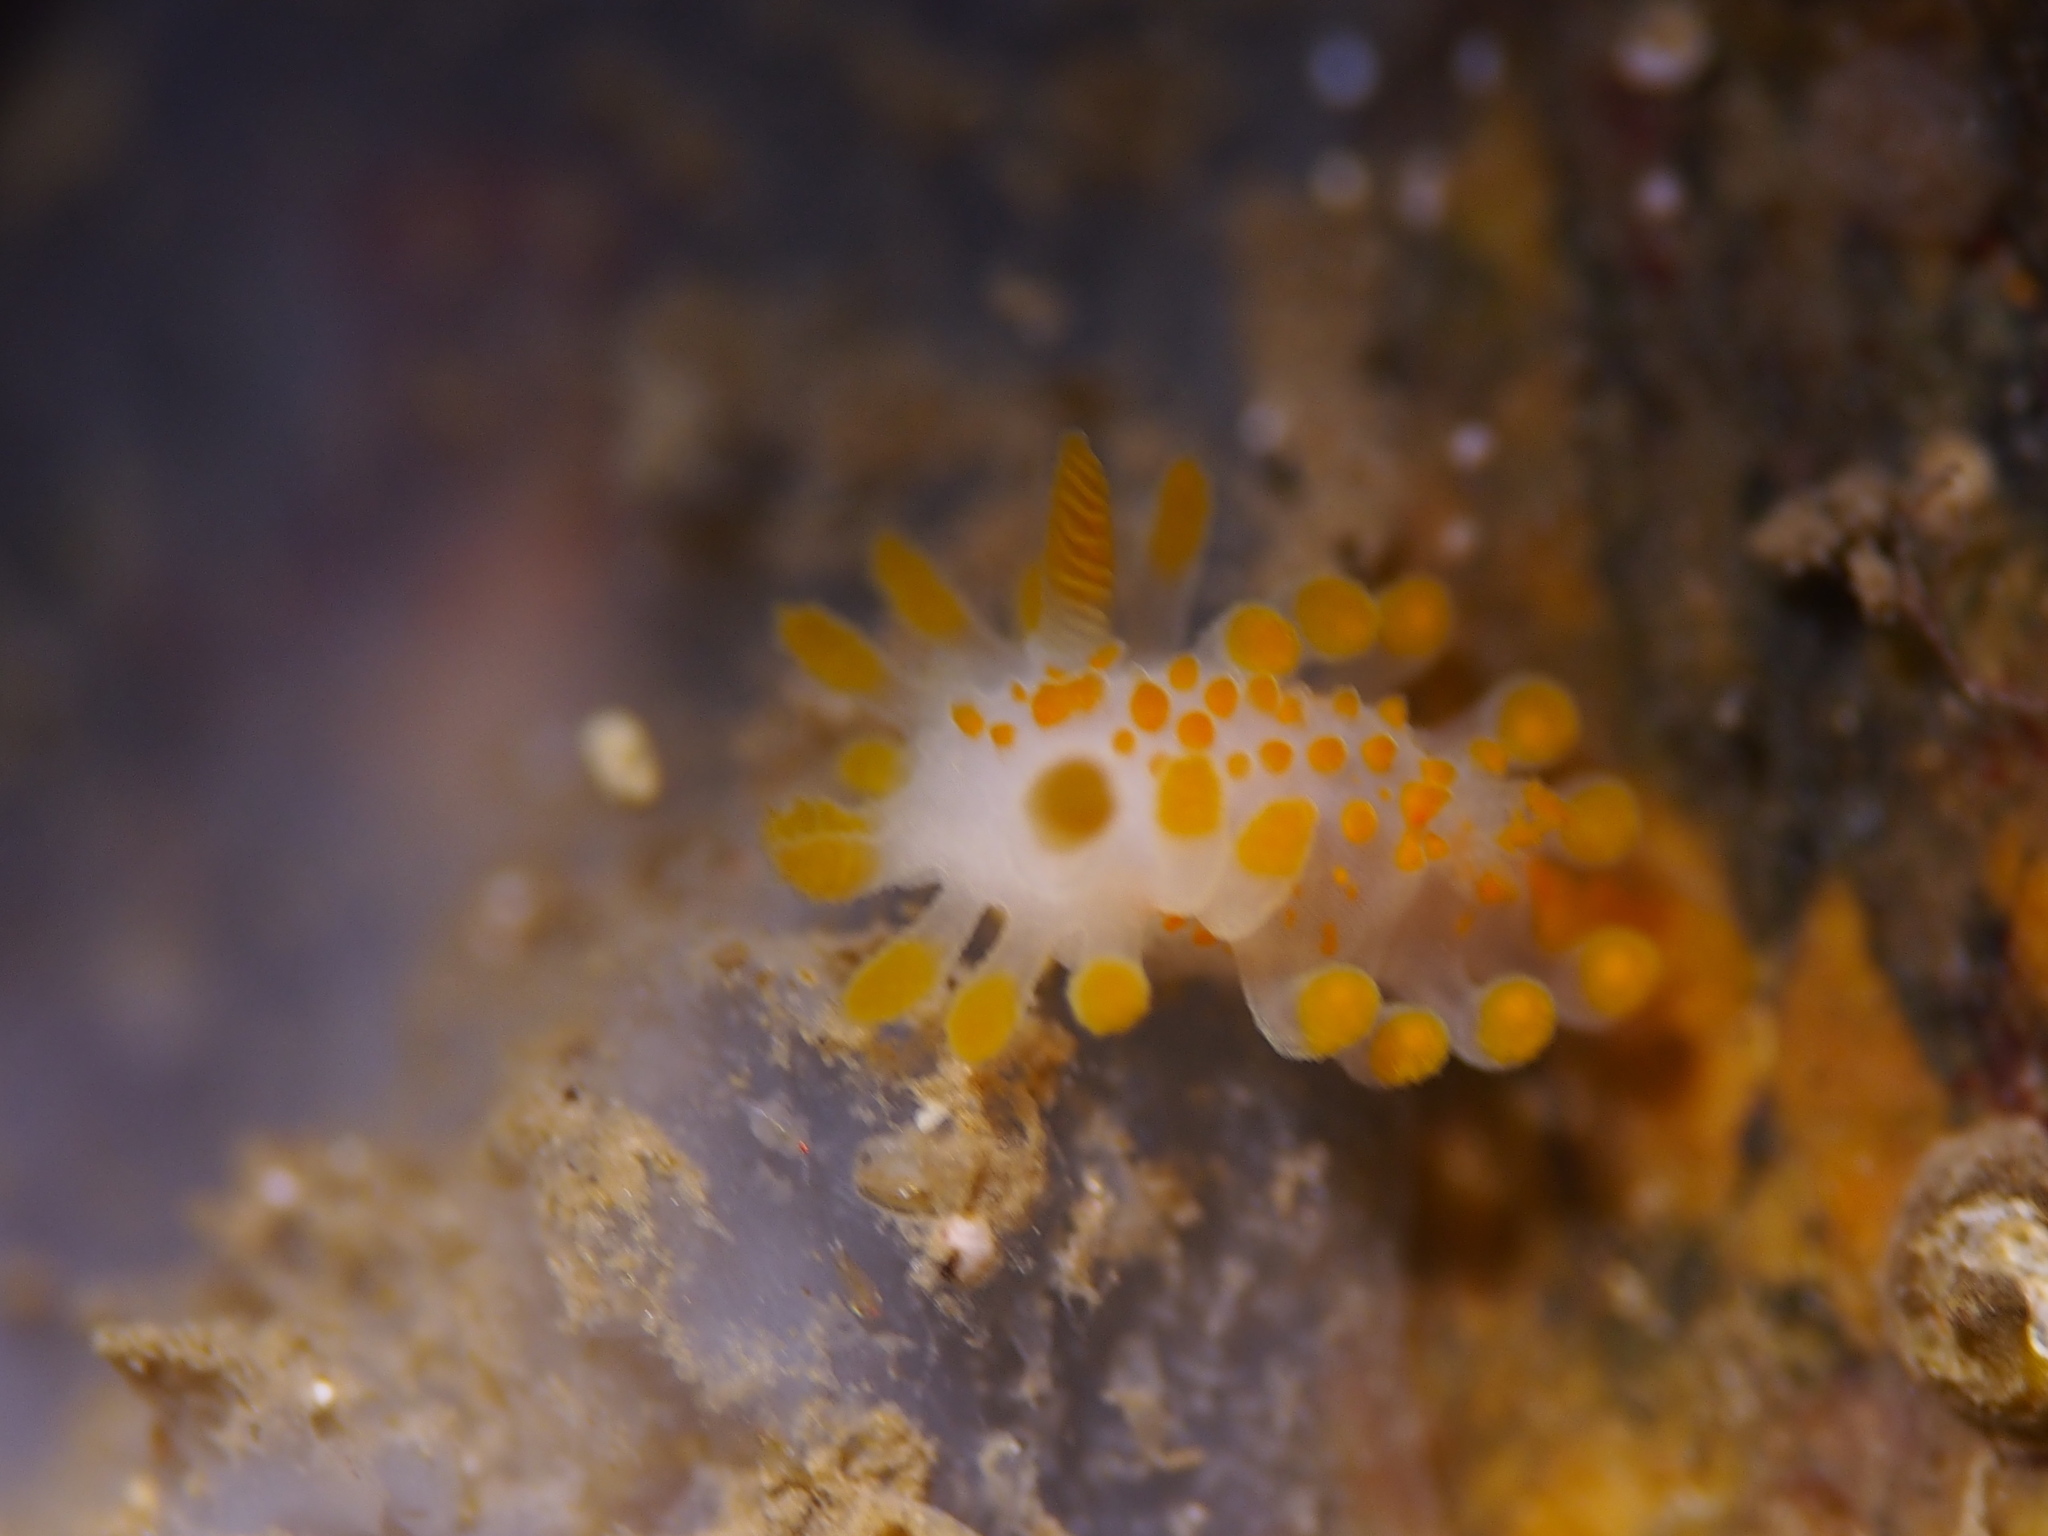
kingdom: Animalia
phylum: Mollusca
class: Gastropoda
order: Nudibranchia
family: Polyceridae
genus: Limacia
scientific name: Limacia clavigera
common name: Orange-clubbed sea slug
